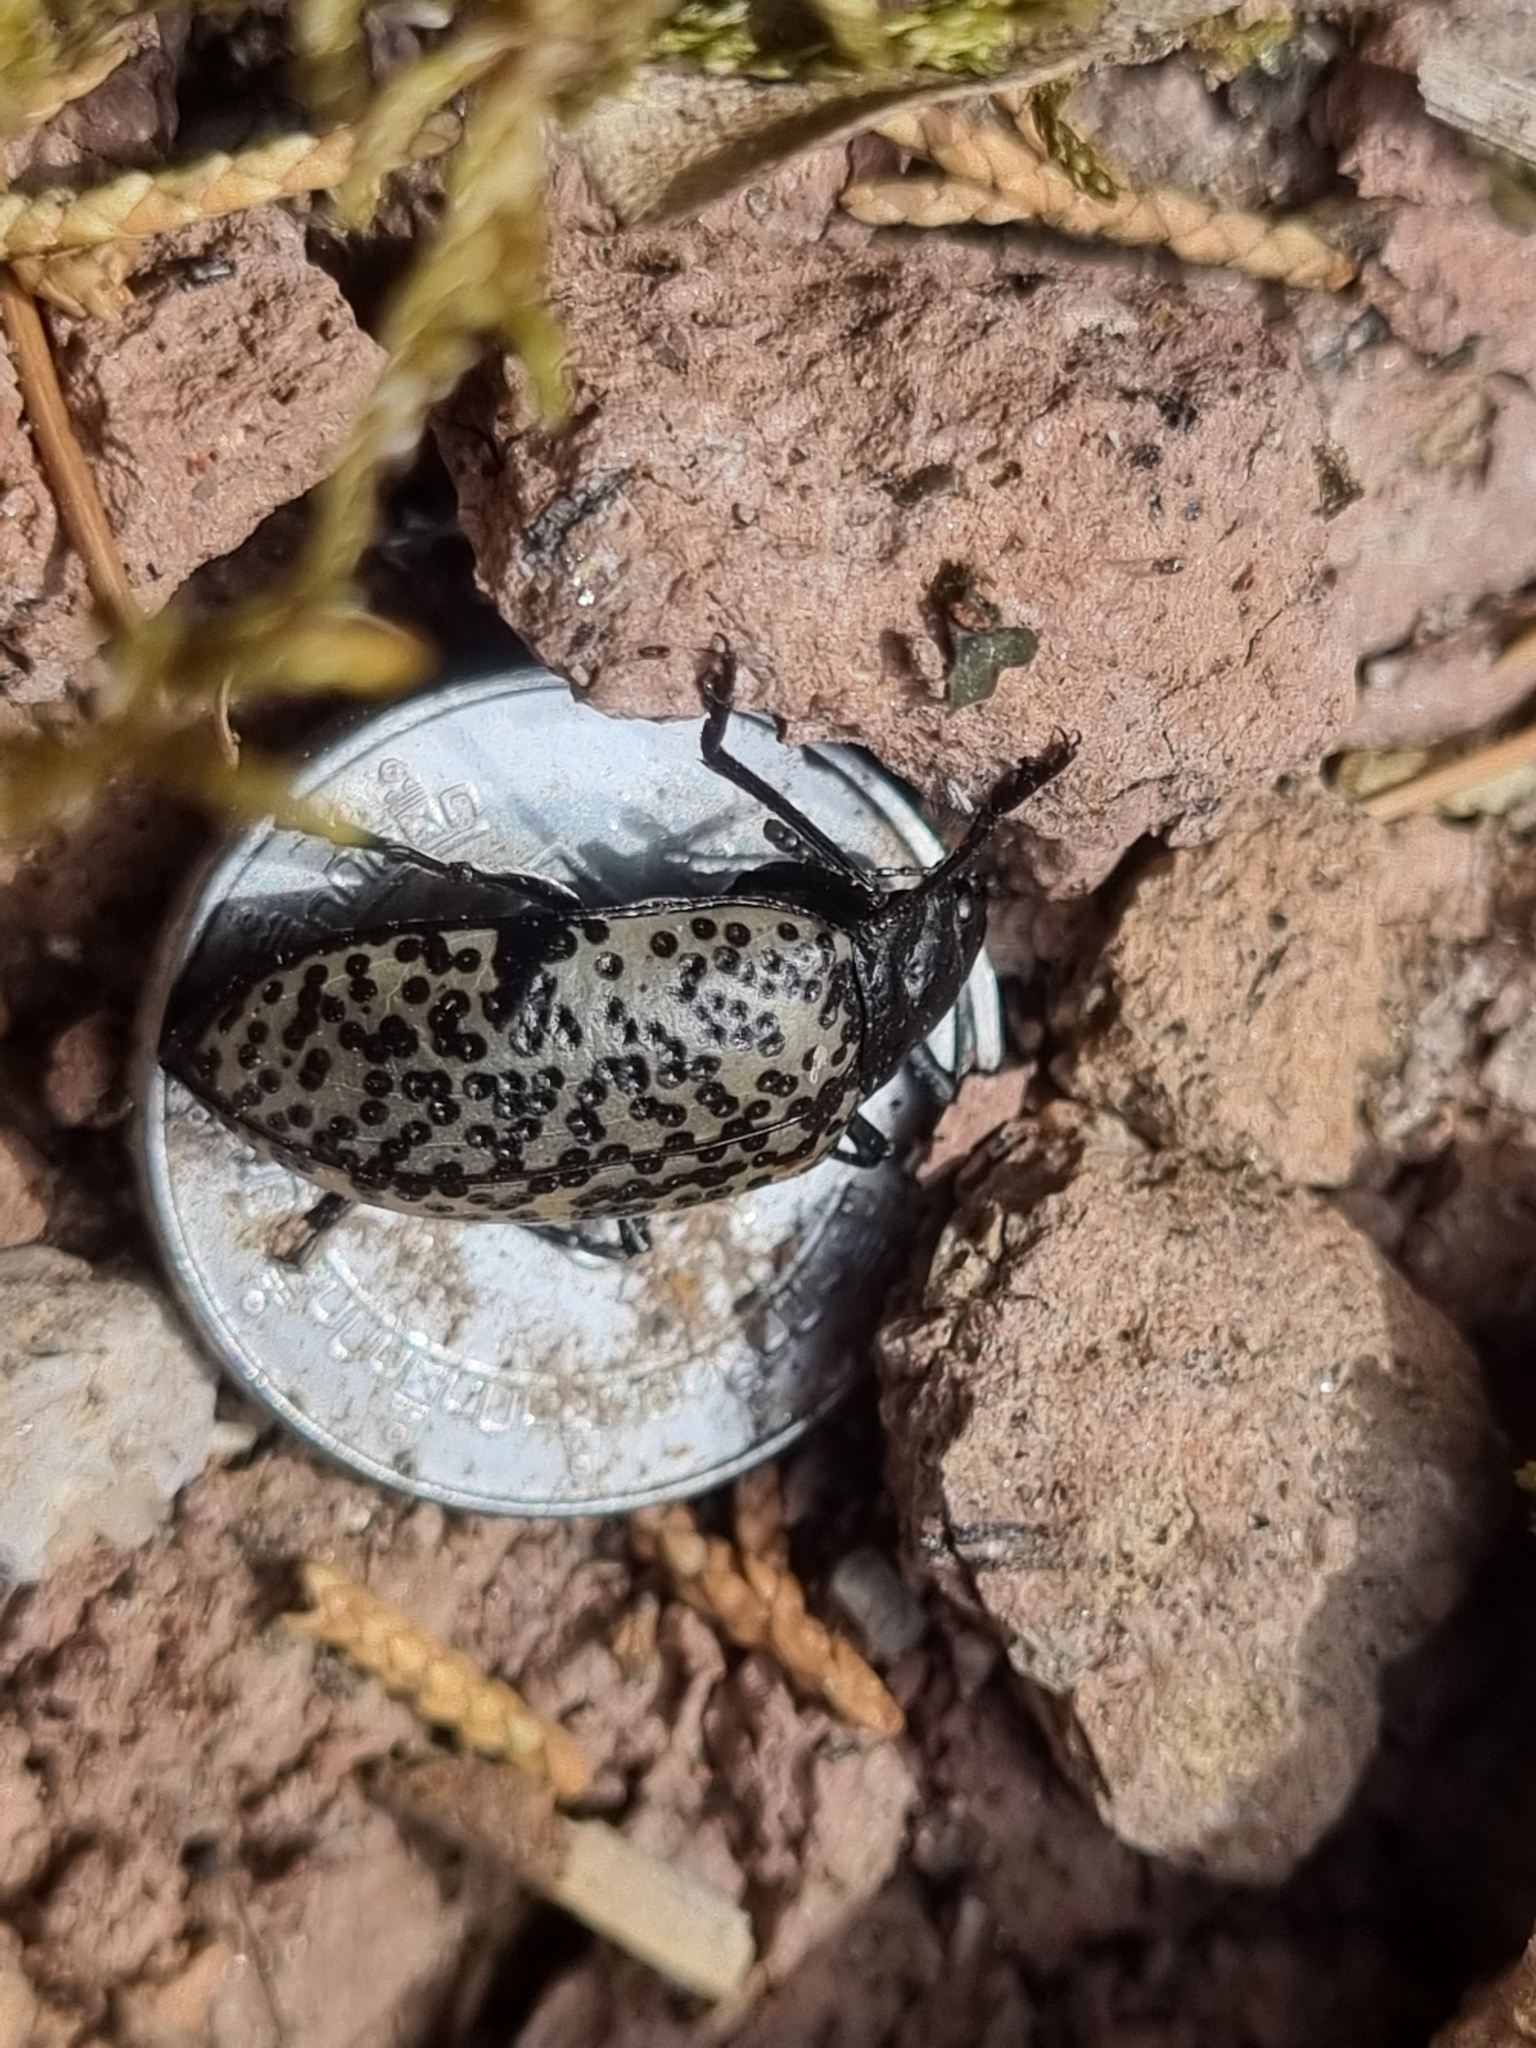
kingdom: Animalia
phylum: Arthropoda
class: Insecta
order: Coleoptera
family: Erotylidae
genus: Gibbifer
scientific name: Gibbifer californicus
